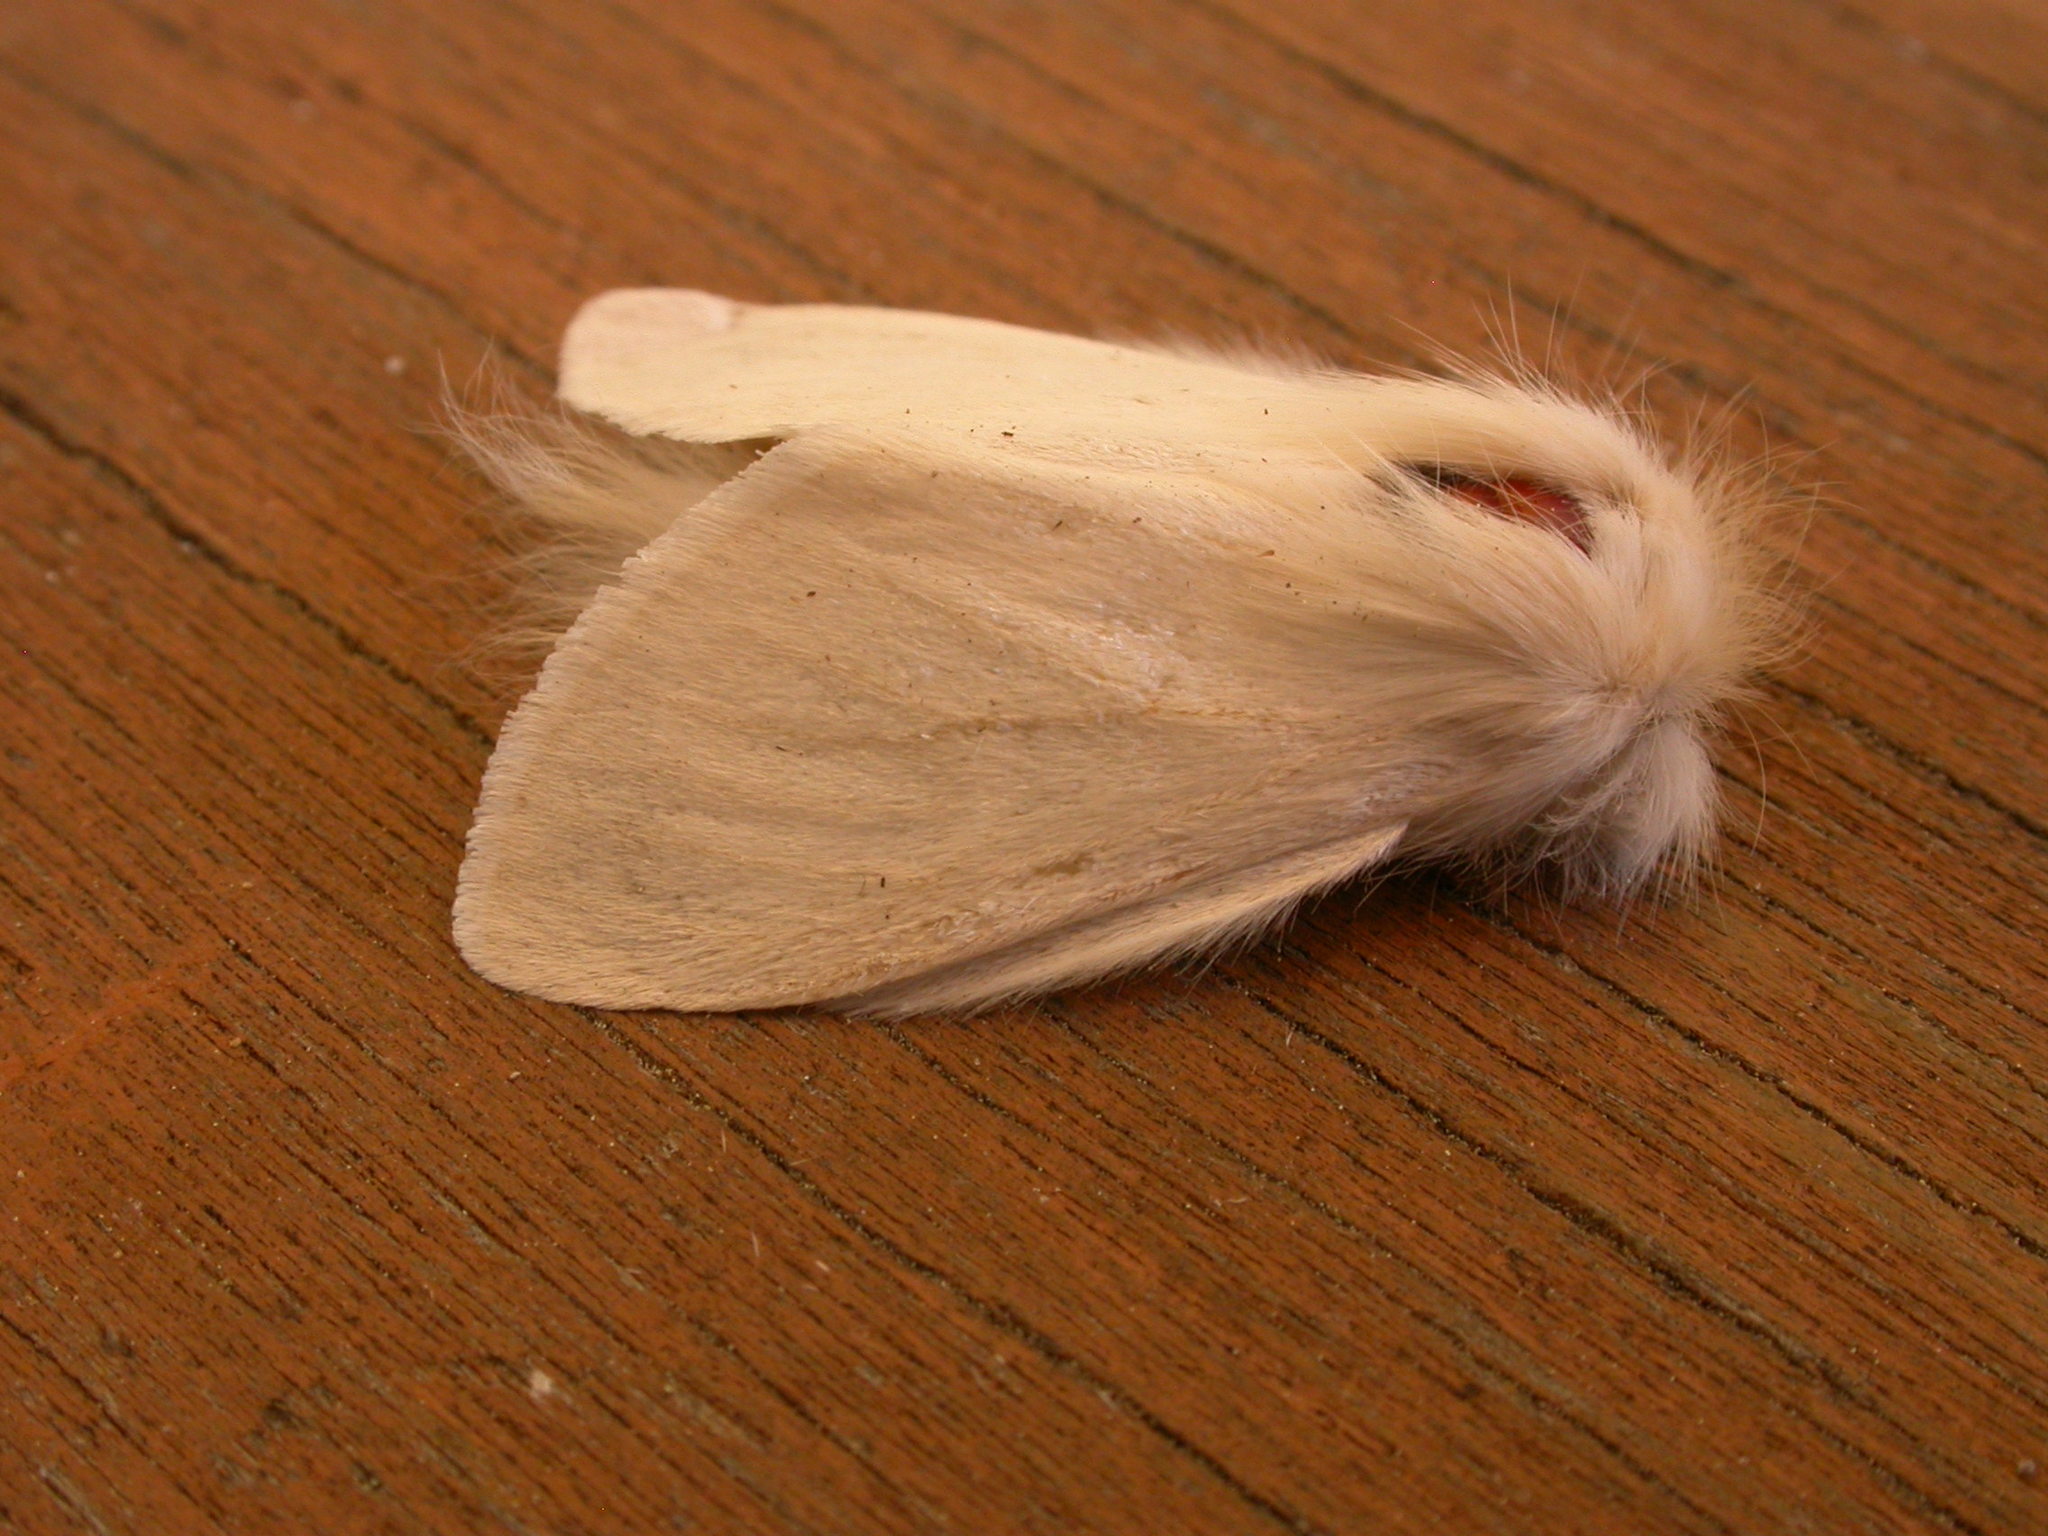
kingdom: Animalia
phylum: Arthropoda
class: Insecta
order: Lepidoptera
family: Notodontidae
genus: Trichiocercus
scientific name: Trichiocercus sparshalli
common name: Long-tailed satin
